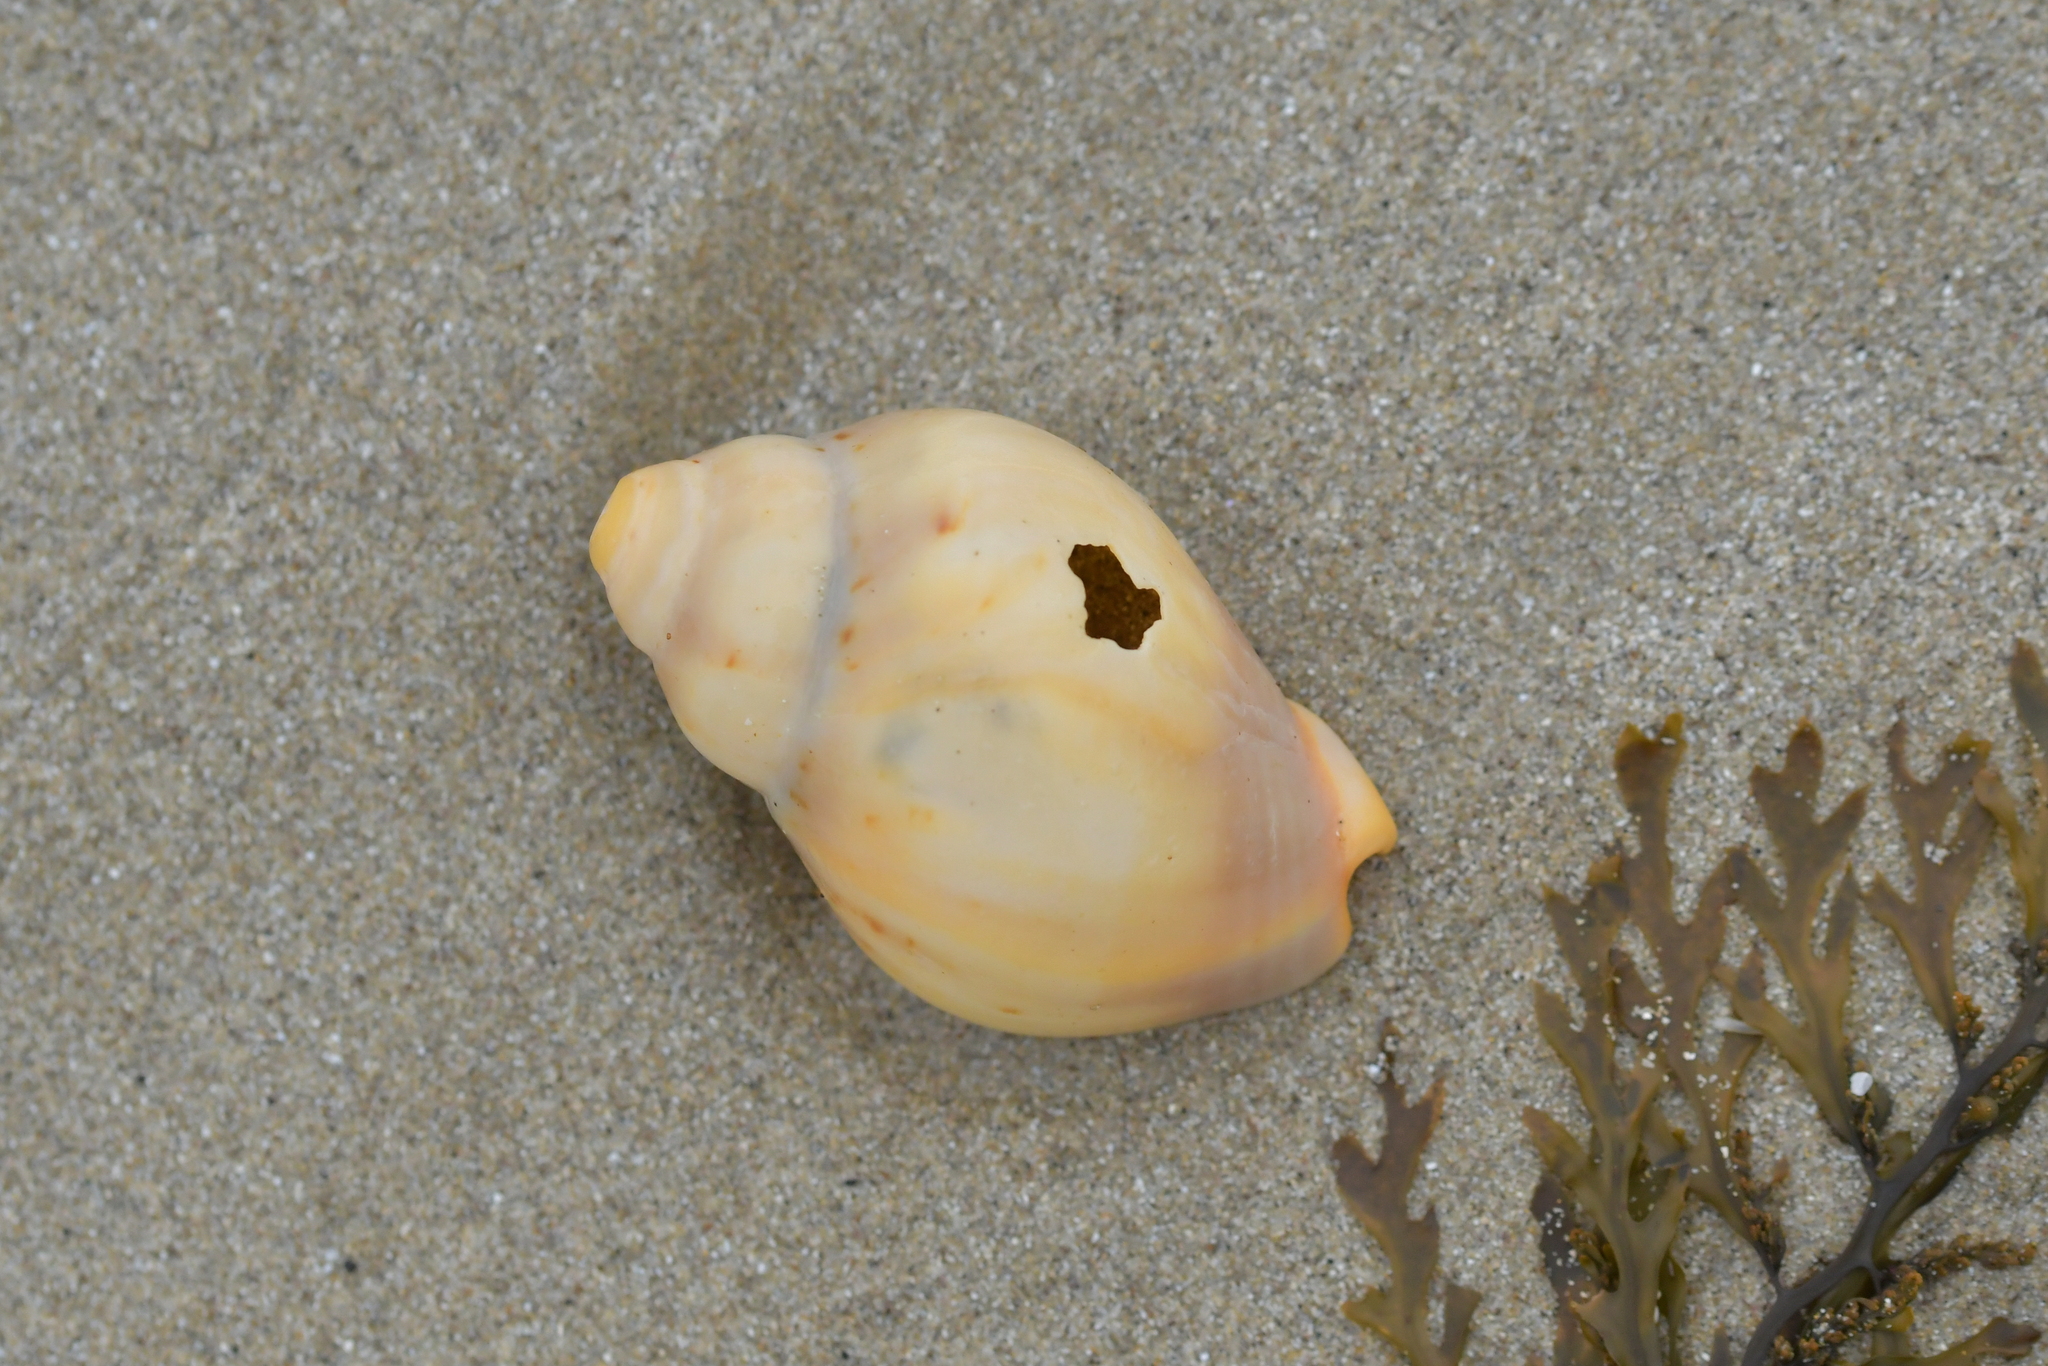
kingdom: Animalia
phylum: Mollusca
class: Gastropoda
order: Neogastropoda
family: Cominellidae
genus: Cominella
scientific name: Cominella adspersa
